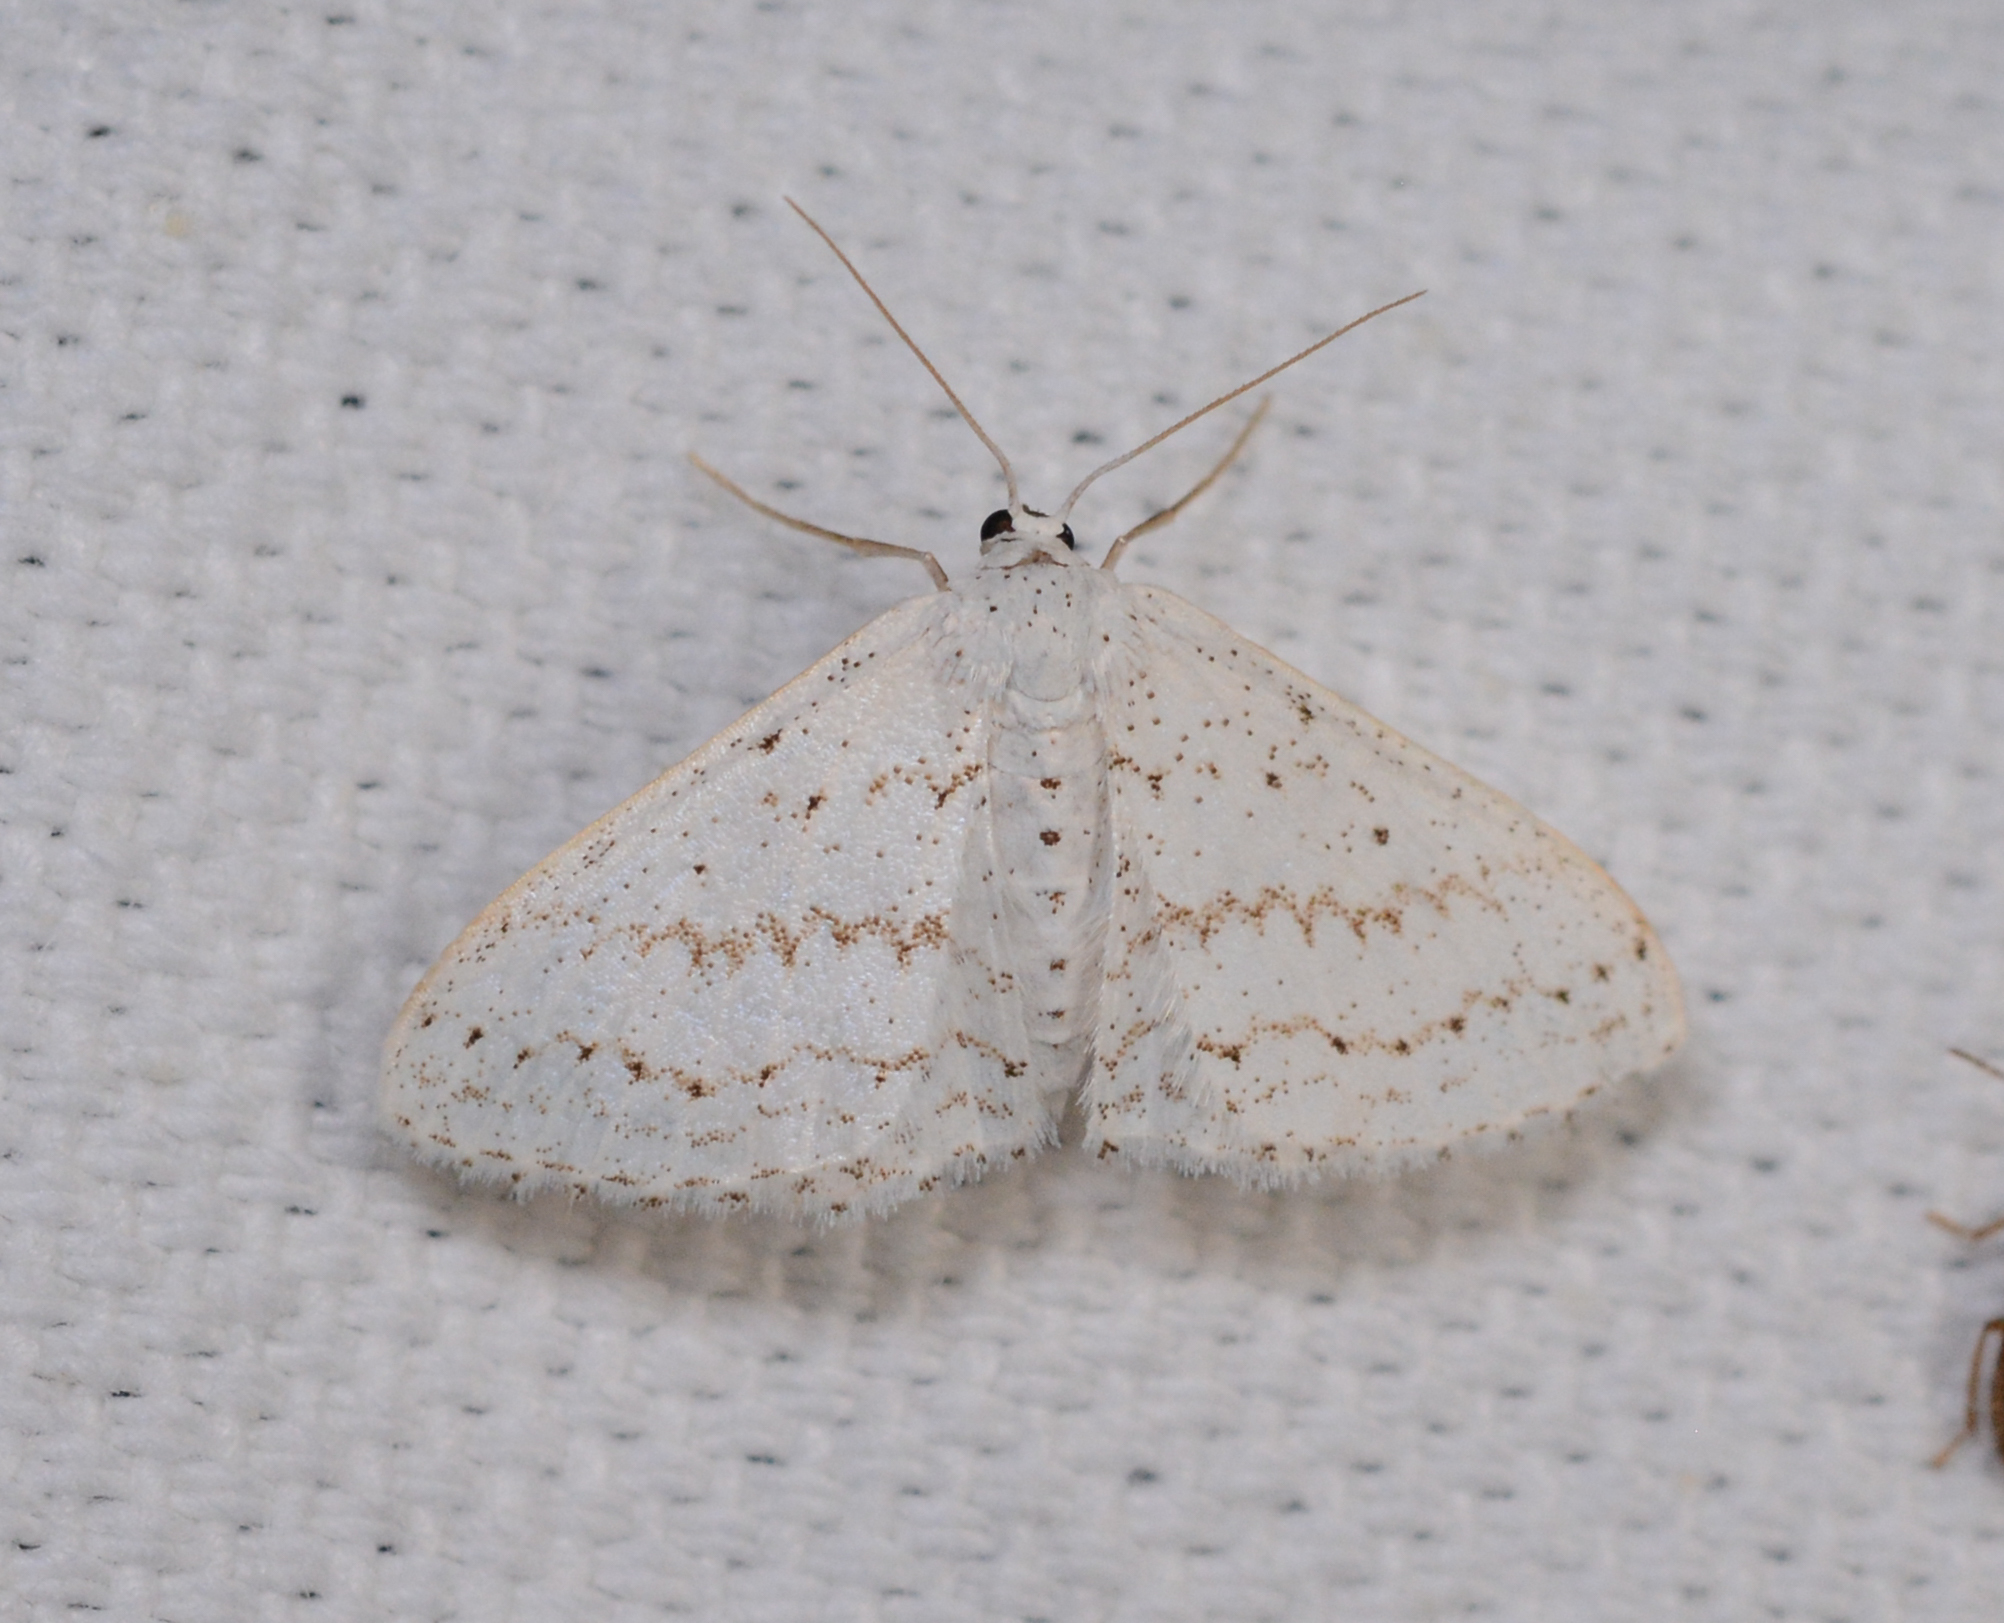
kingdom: Animalia
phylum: Arthropoda
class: Insecta
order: Lepidoptera
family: Geometridae
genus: Idaea
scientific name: Idaea tacturata
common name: Dot-lined wave
